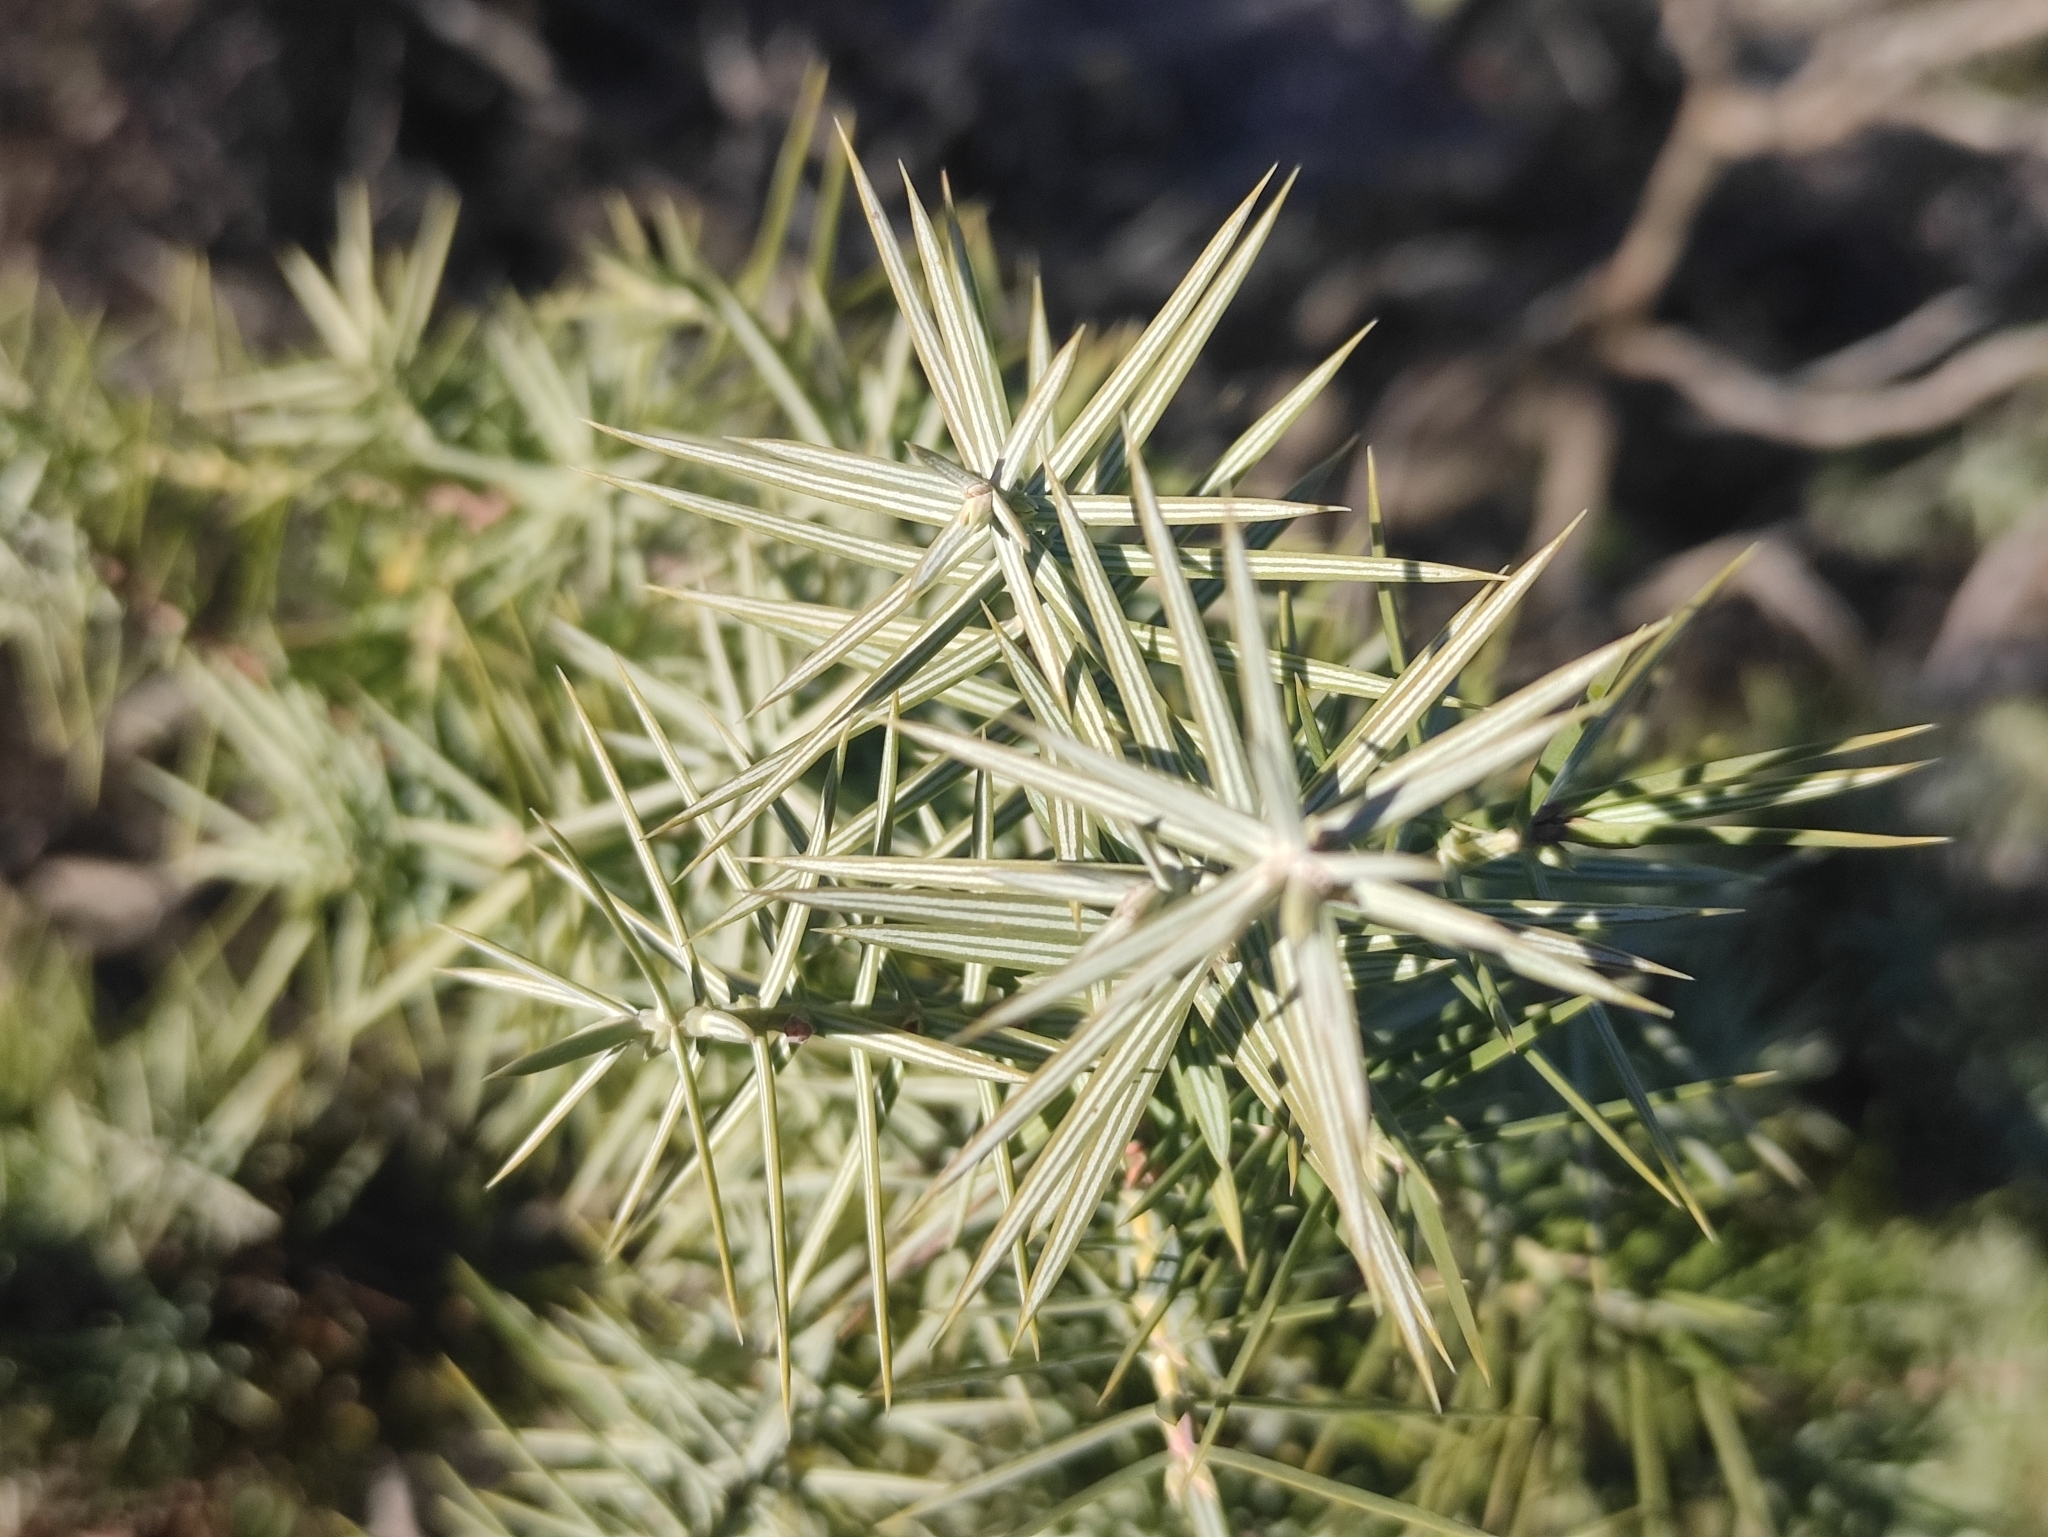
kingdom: Plantae
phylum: Tracheophyta
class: Pinopsida
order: Pinales
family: Cupressaceae
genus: Juniperus
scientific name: Juniperus oxycedrus
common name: Prickly juniper
